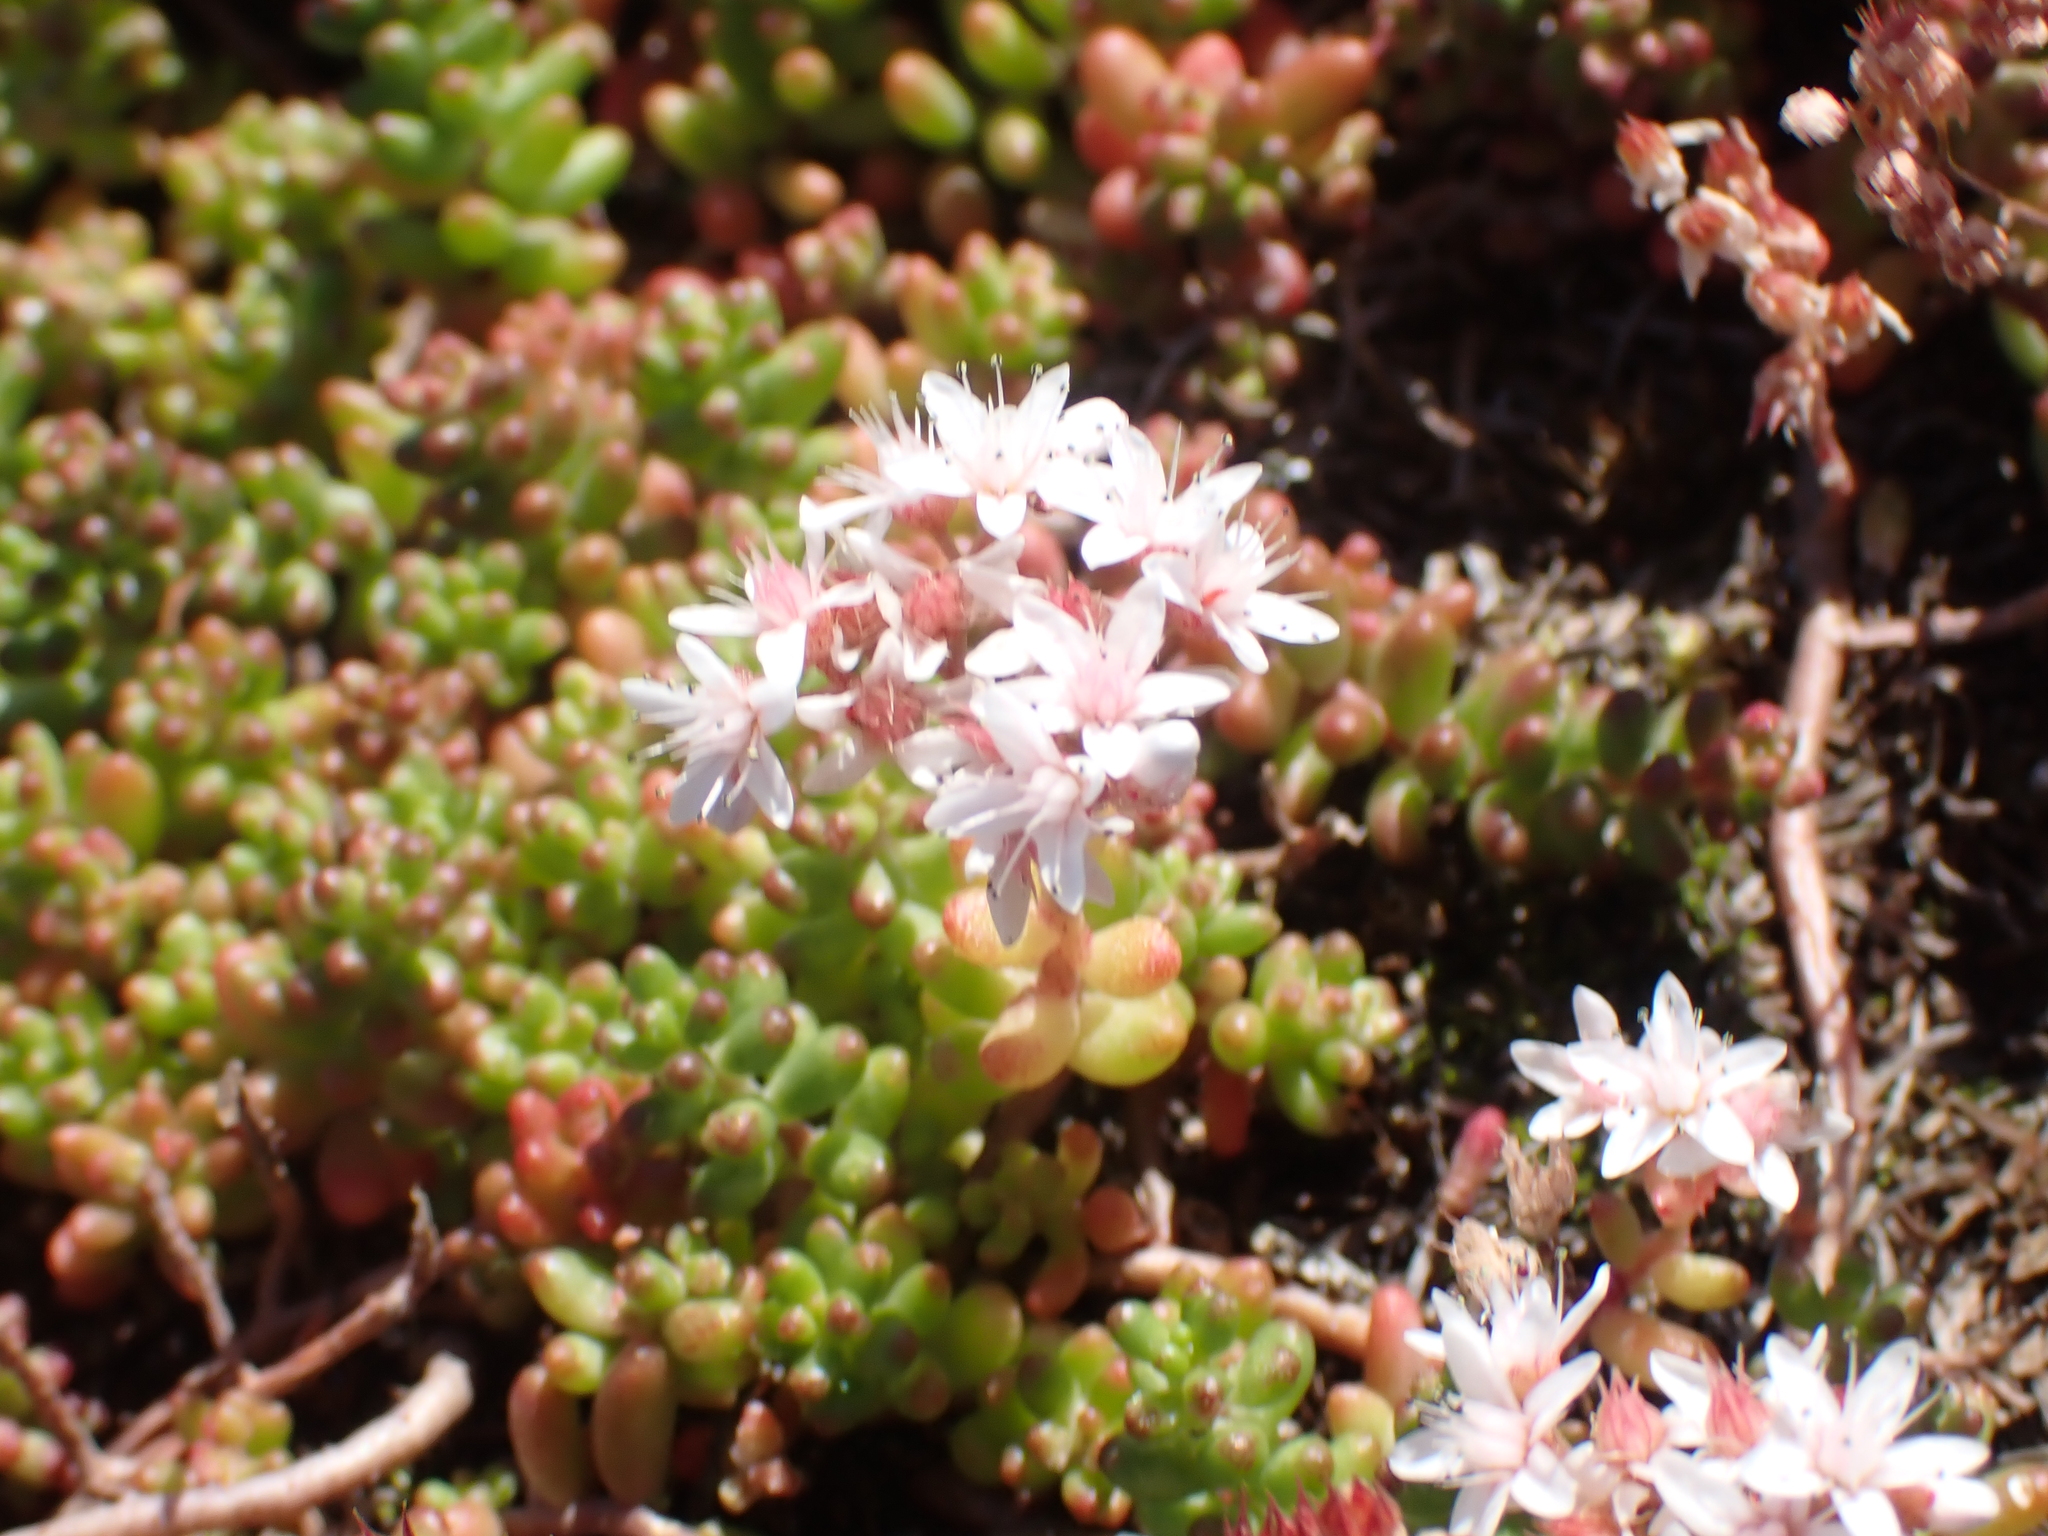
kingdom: Plantae
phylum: Tracheophyta
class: Magnoliopsida
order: Saxifragales
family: Crassulaceae
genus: Sedum
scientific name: Sedum album
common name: White stonecrop
